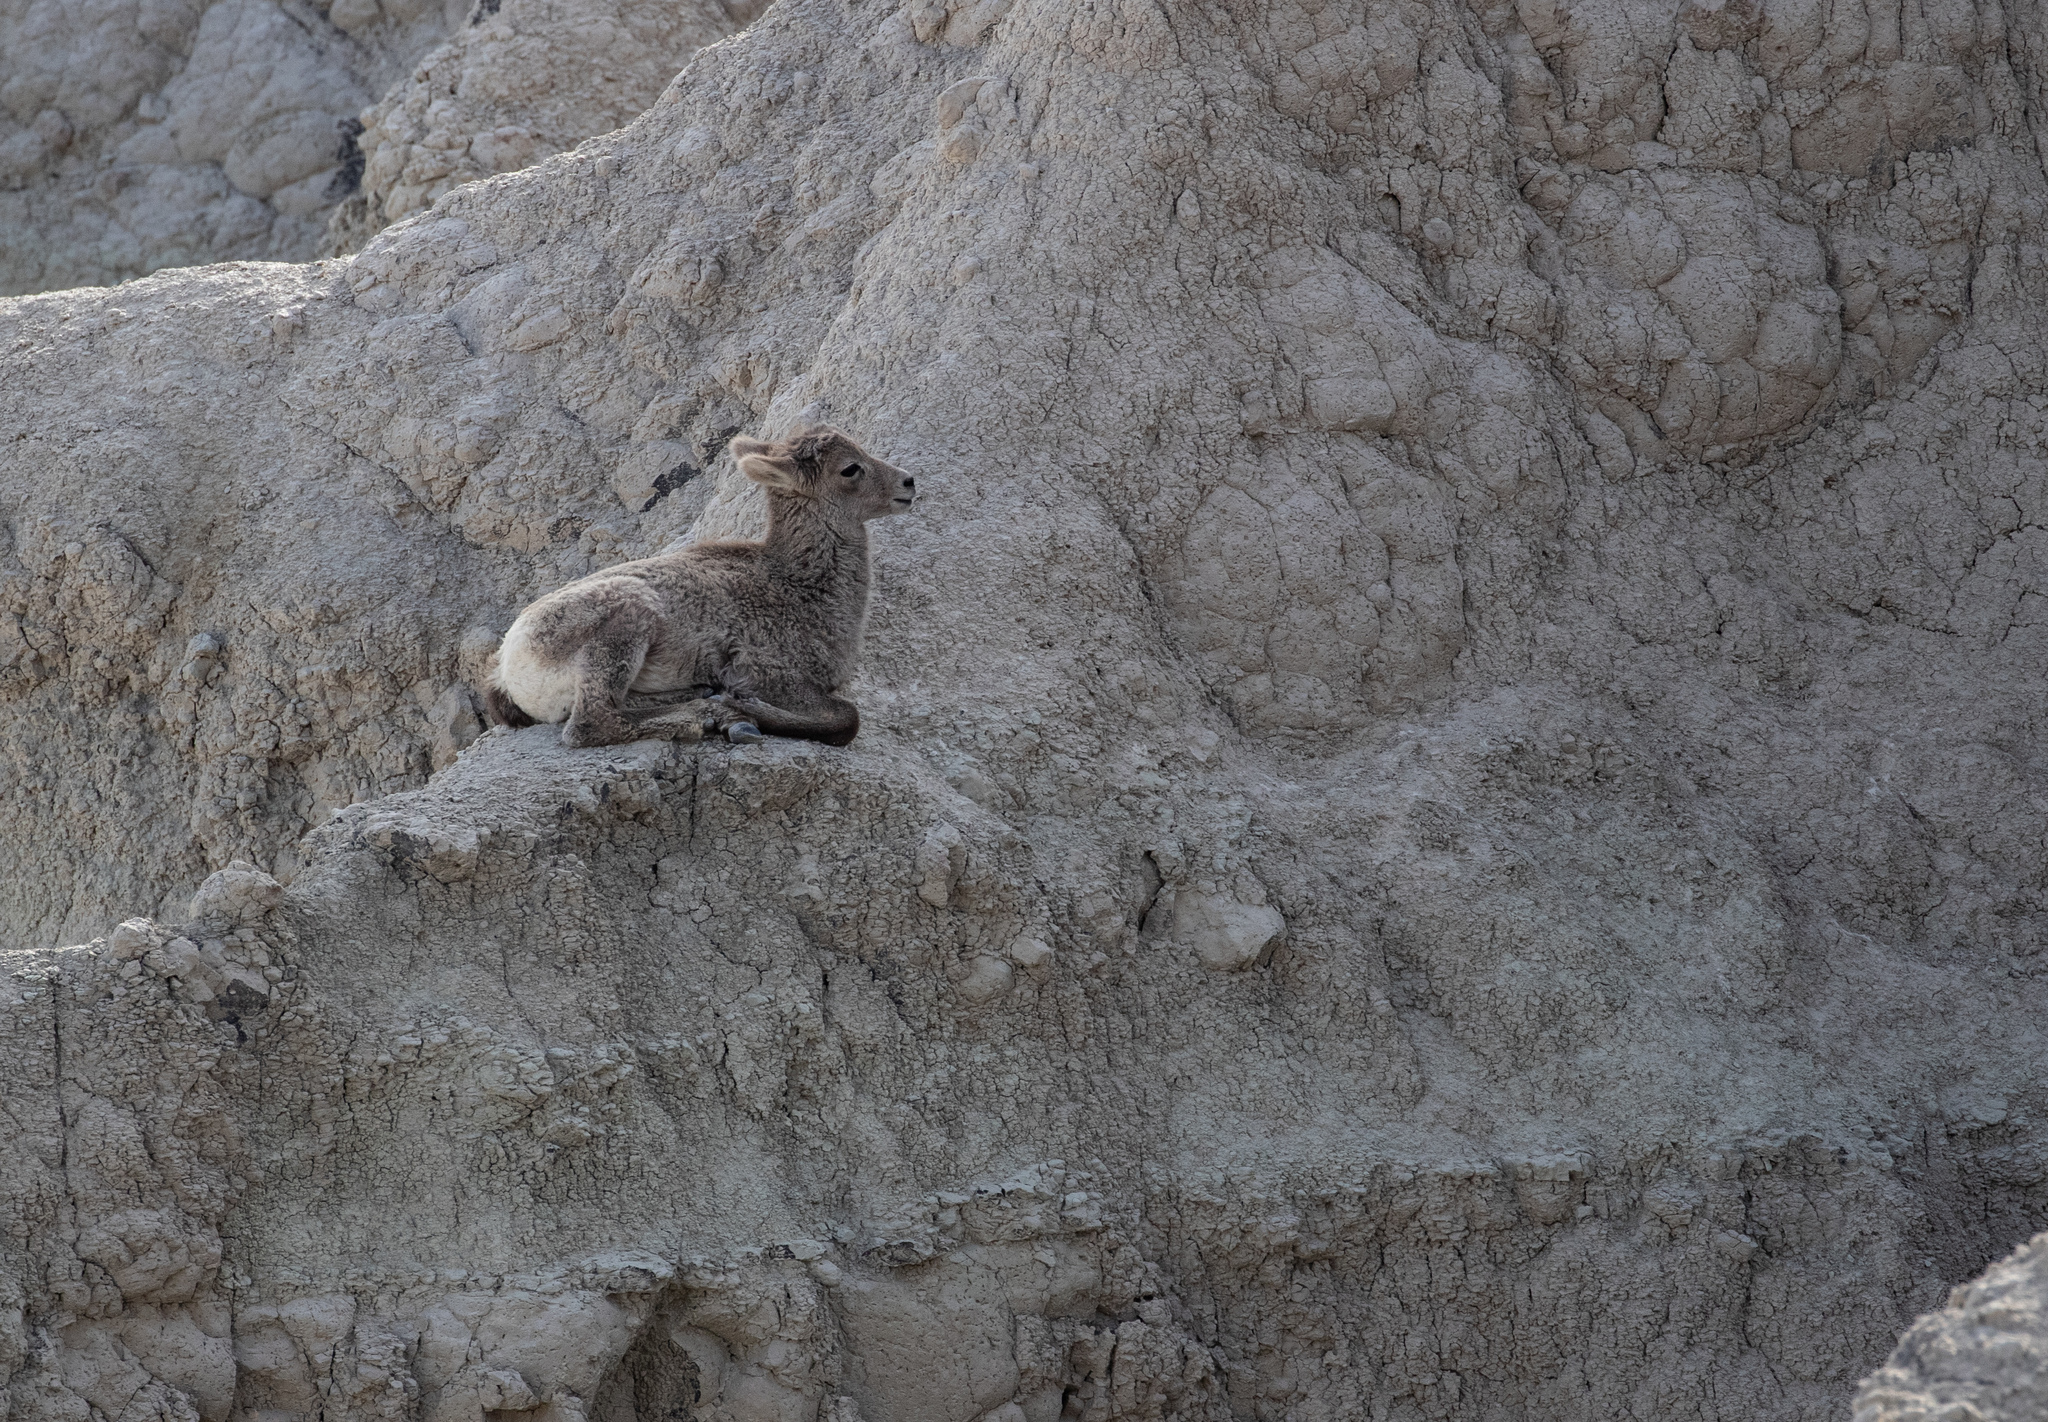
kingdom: Animalia
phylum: Chordata
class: Mammalia
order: Artiodactyla
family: Bovidae
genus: Ovis
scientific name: Ovis canadensis
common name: Bighorn sheep
